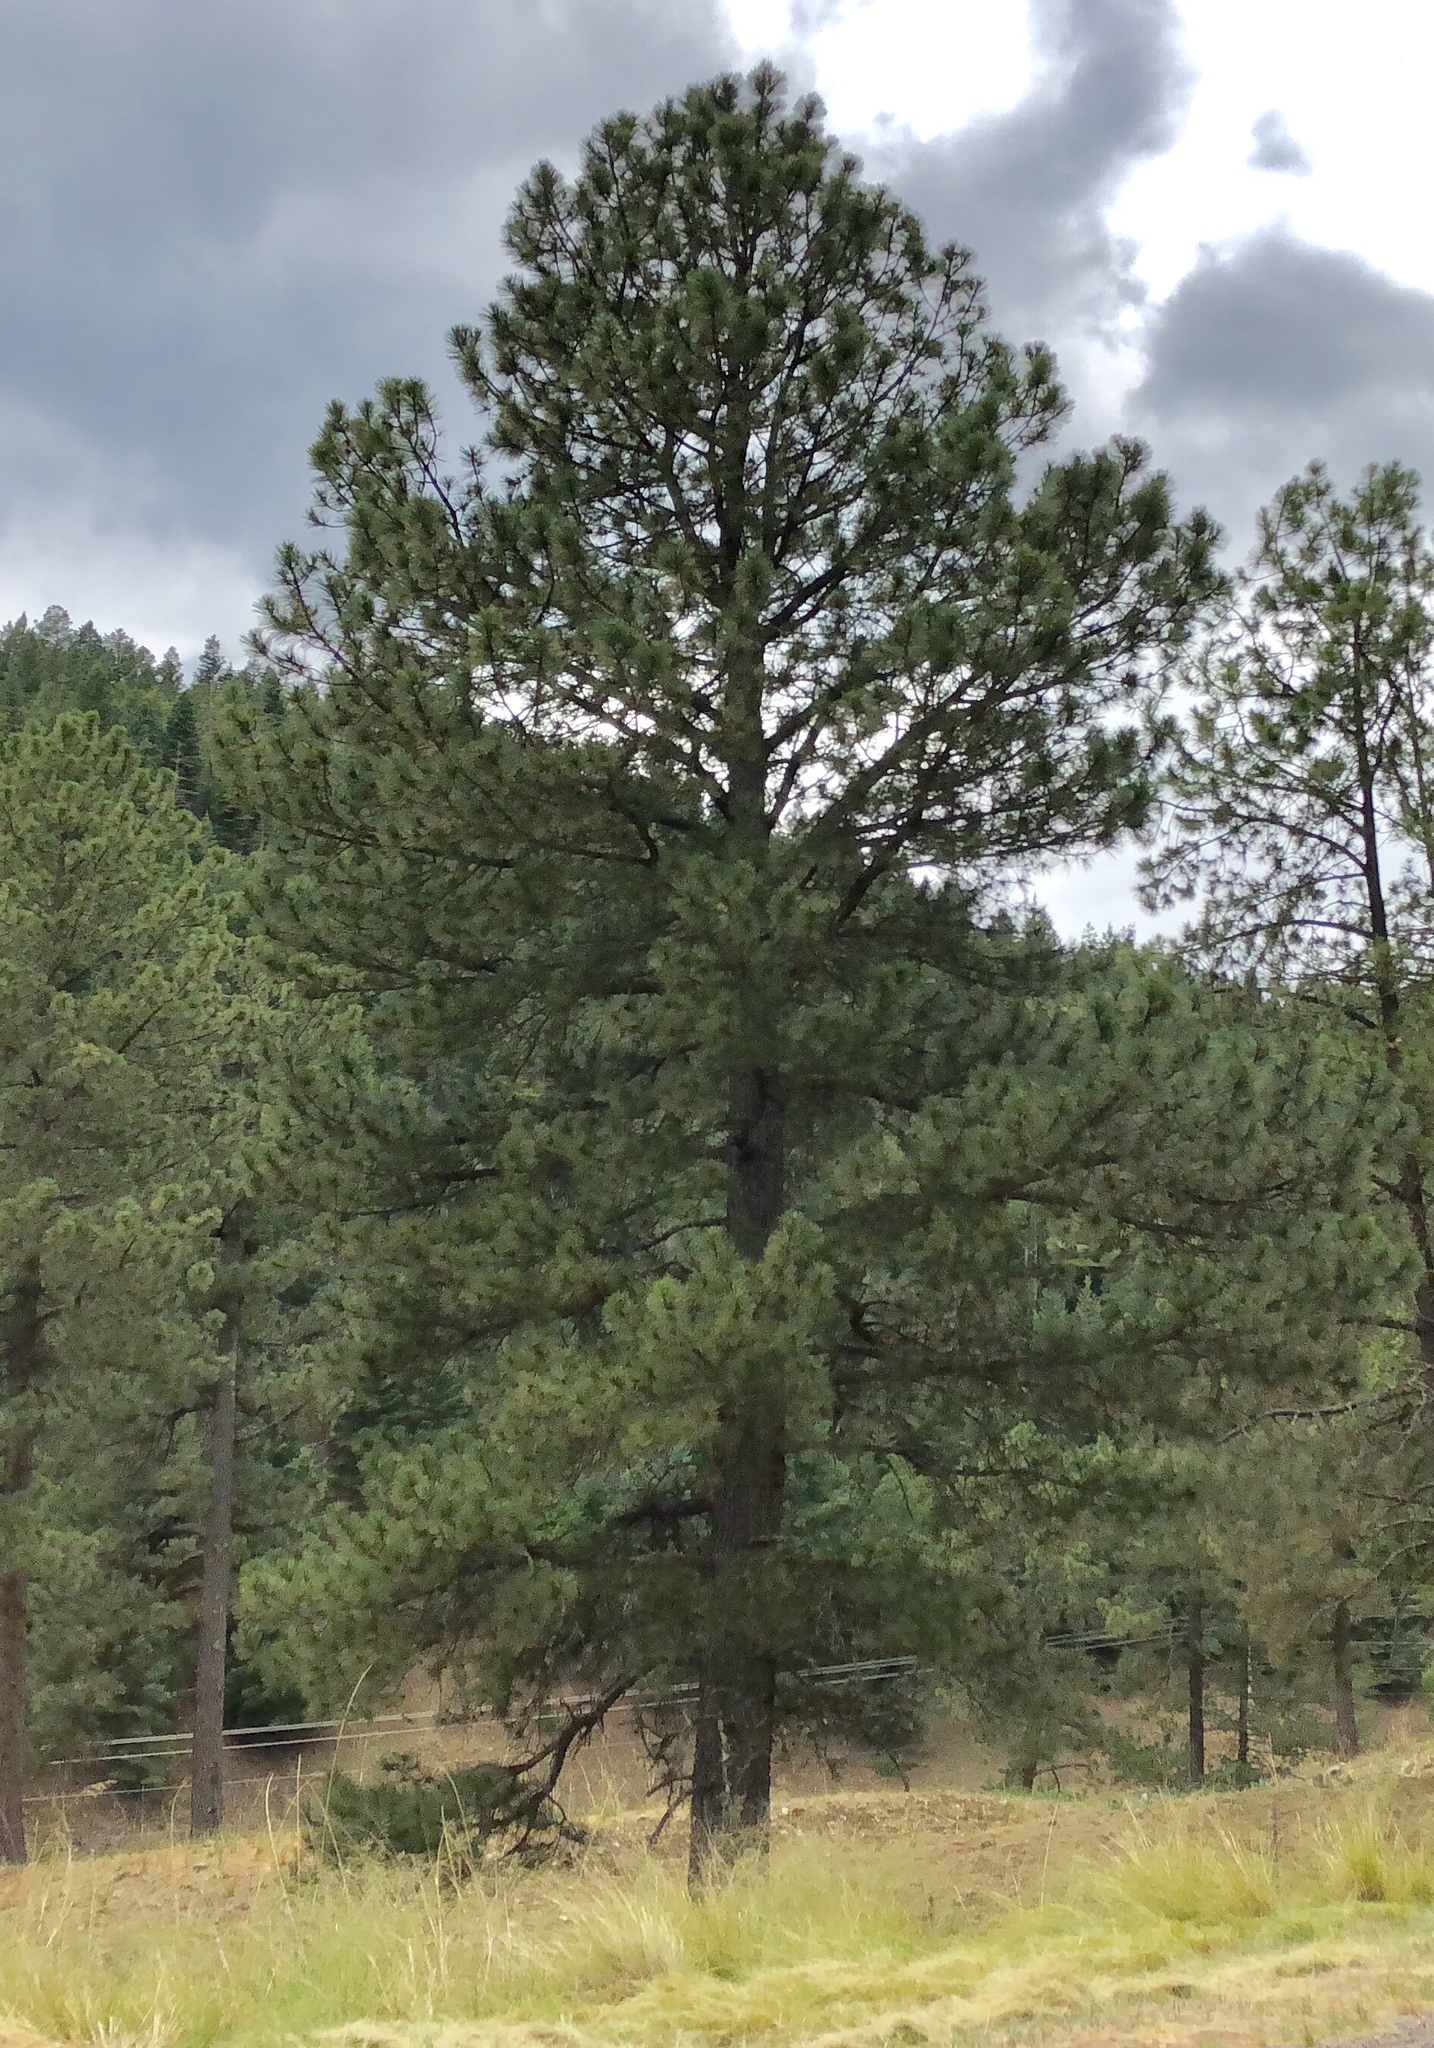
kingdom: Plantae
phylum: Tracheophyta
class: Pinopsida
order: Pinales
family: Pinaceae
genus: Pinus
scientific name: Pinus ponderosa
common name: Western yellow-pine
